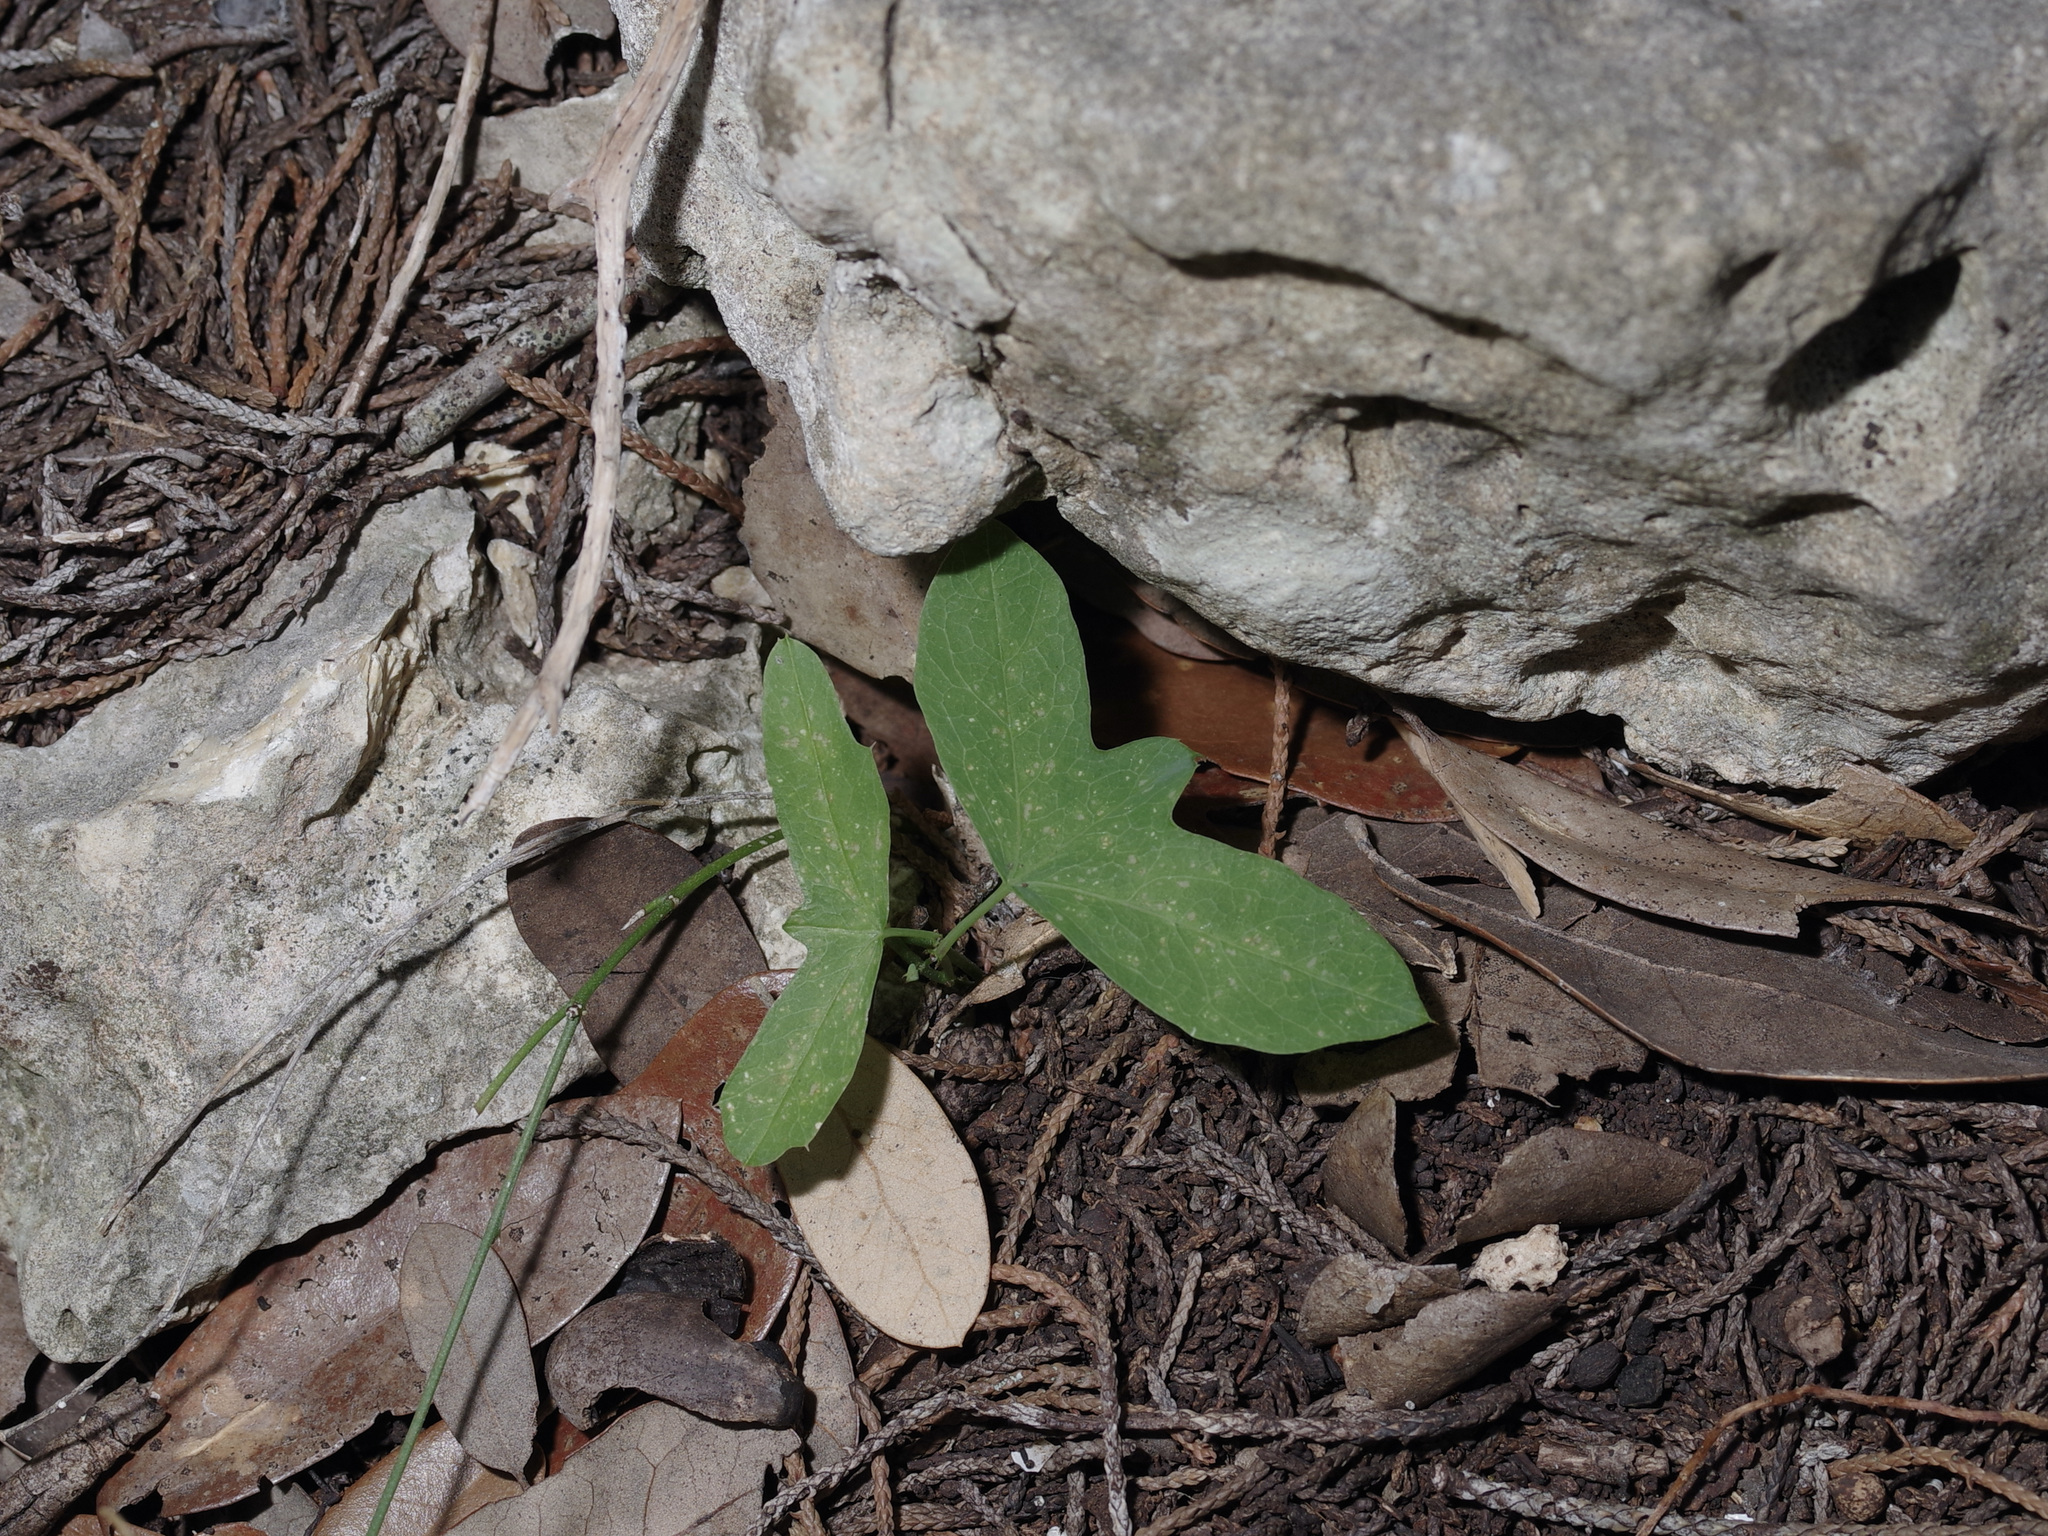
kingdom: Plantae
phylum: Tracheophyta
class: Magnoliopsida
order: Malpighiales
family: Passifloraceae
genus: Passiflora
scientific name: Passiflora tenuiloba
